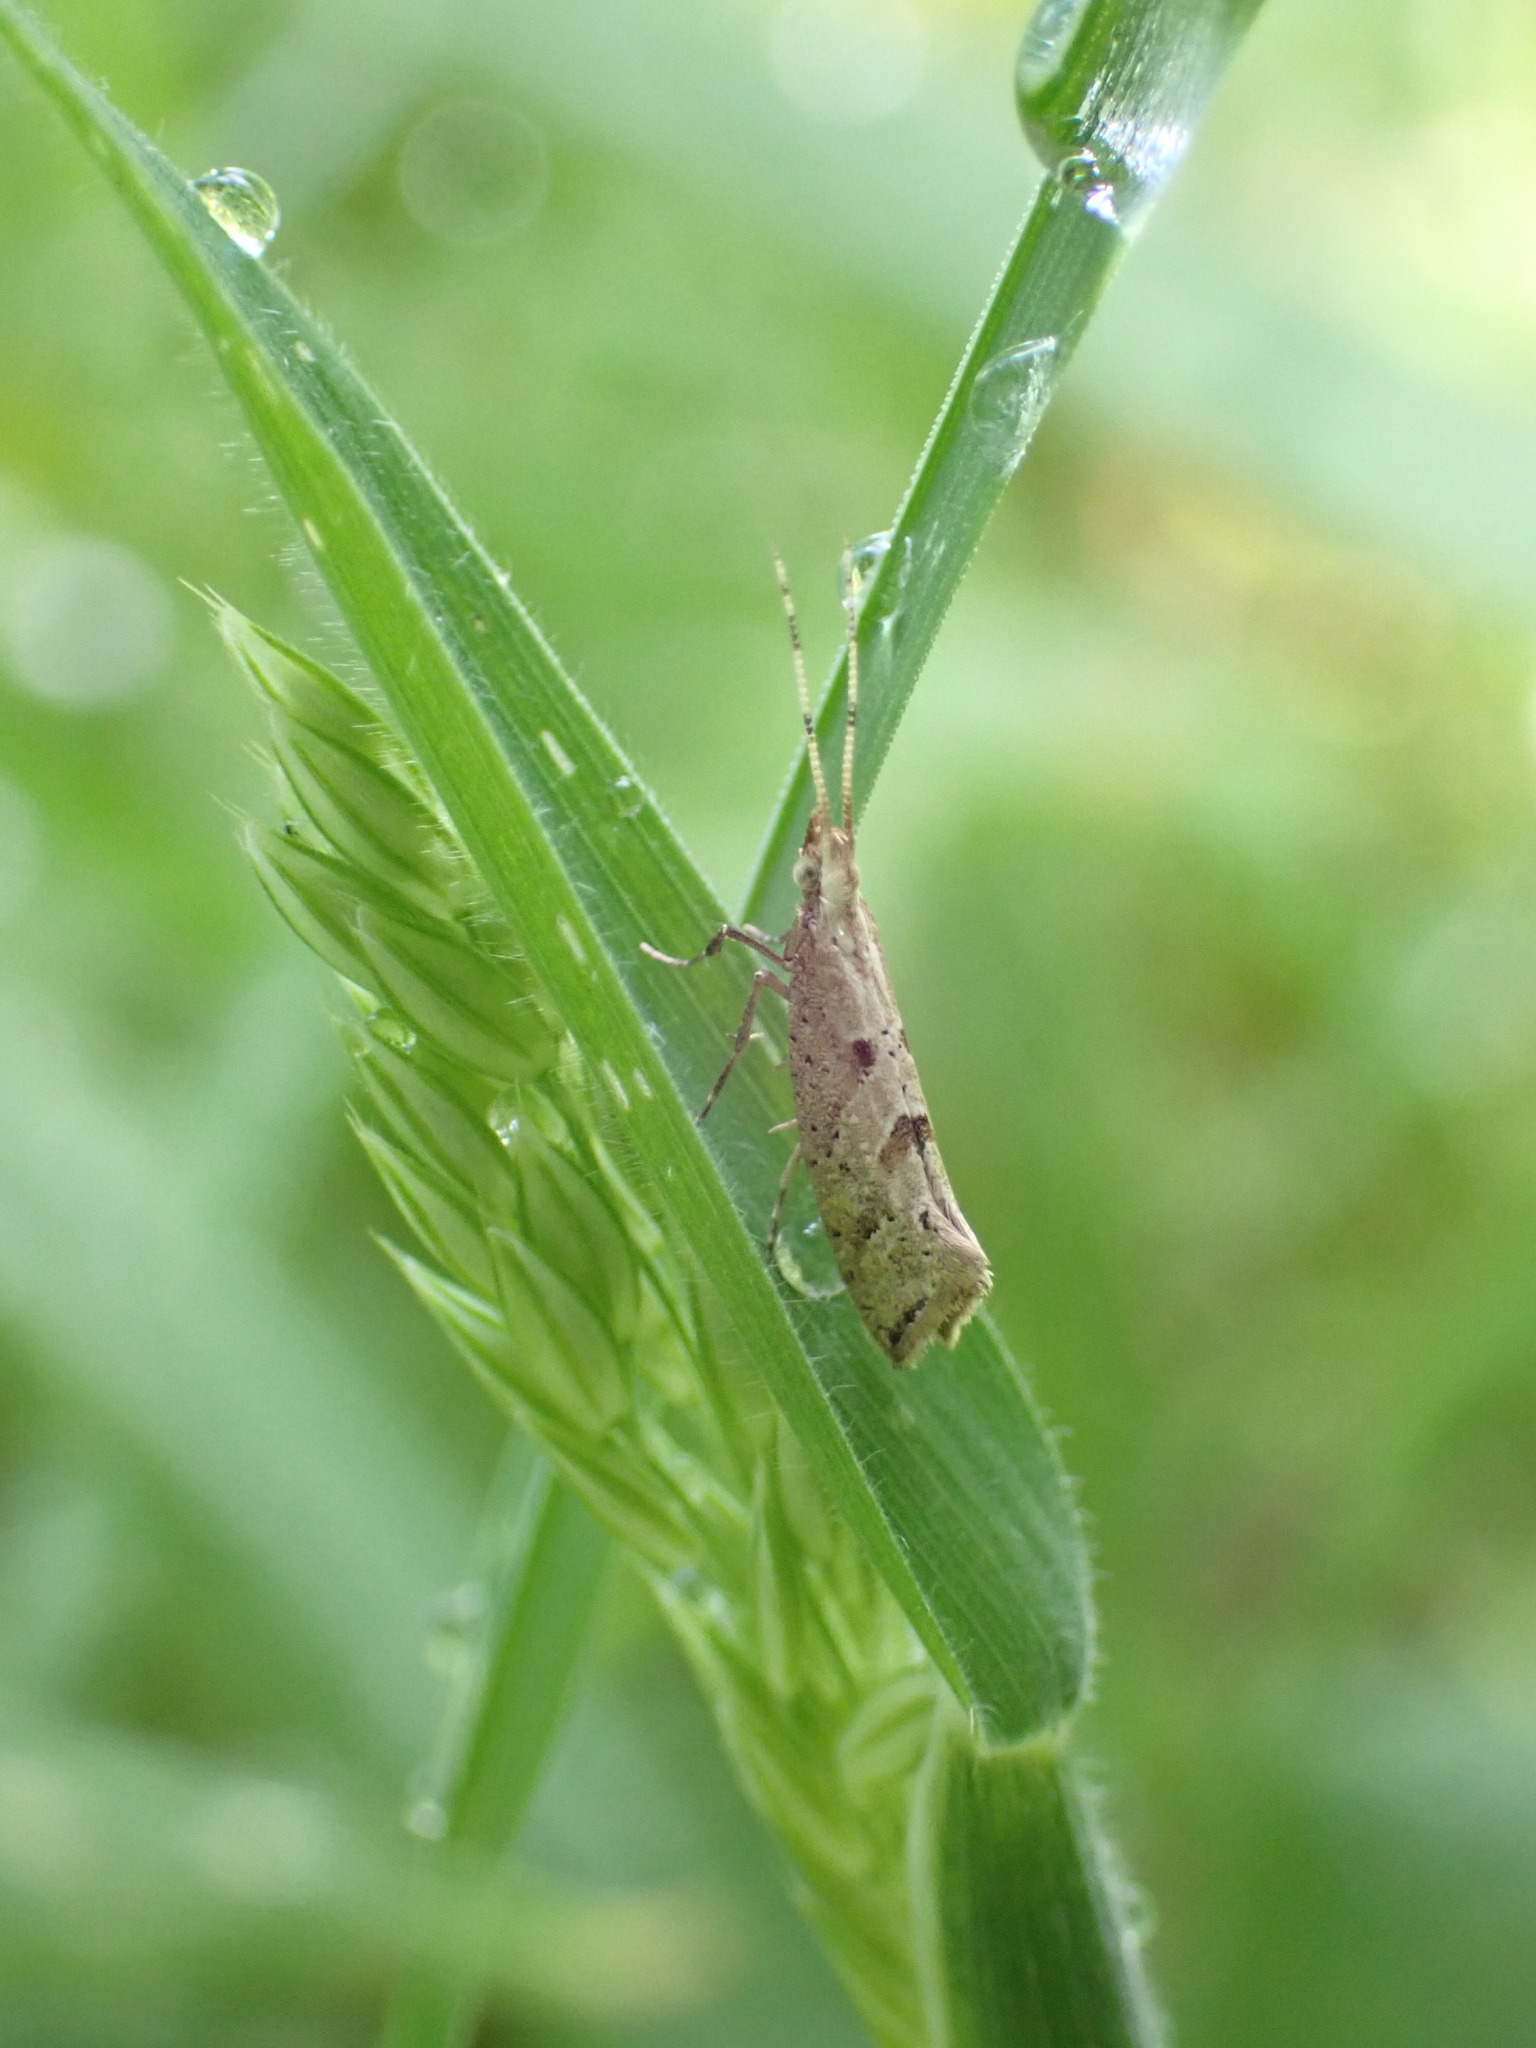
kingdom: Animalia
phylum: Arthropoda
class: Insecta
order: Lepidoptera
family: Plutellidae
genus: Leuroperna
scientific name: Leuroperna sera
